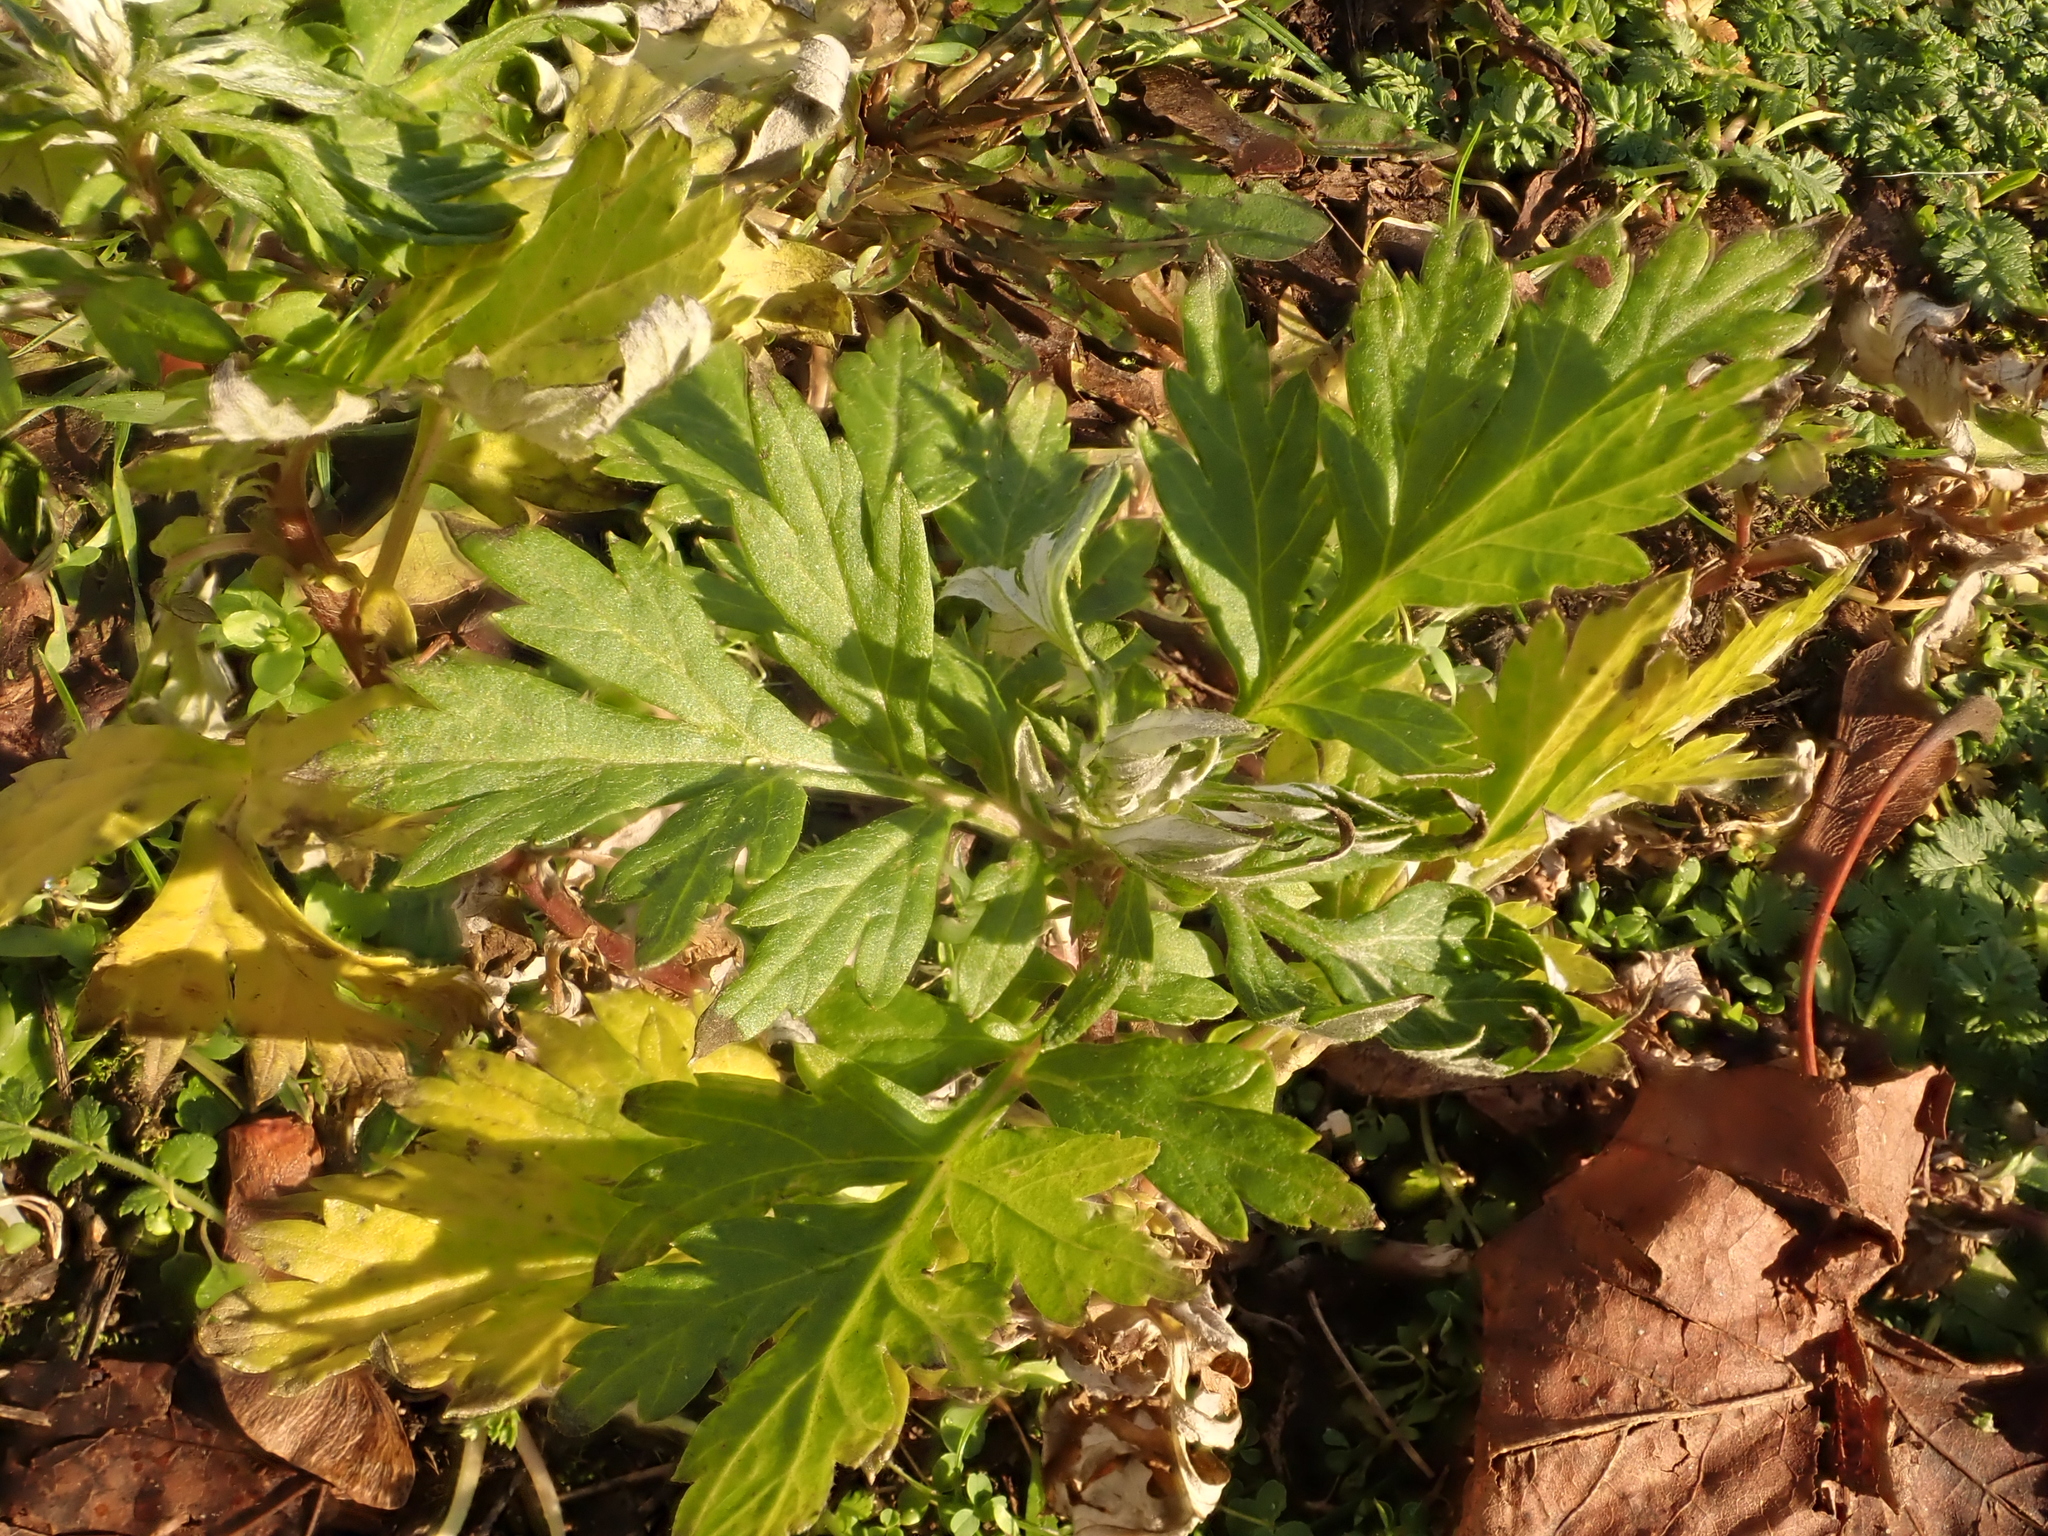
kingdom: Plantae
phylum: Tracheophyta
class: Magnoliopsida
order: Asterales
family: Asteraceae
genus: Artemisia
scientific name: Artemisia vulgaris
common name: Mugwort
